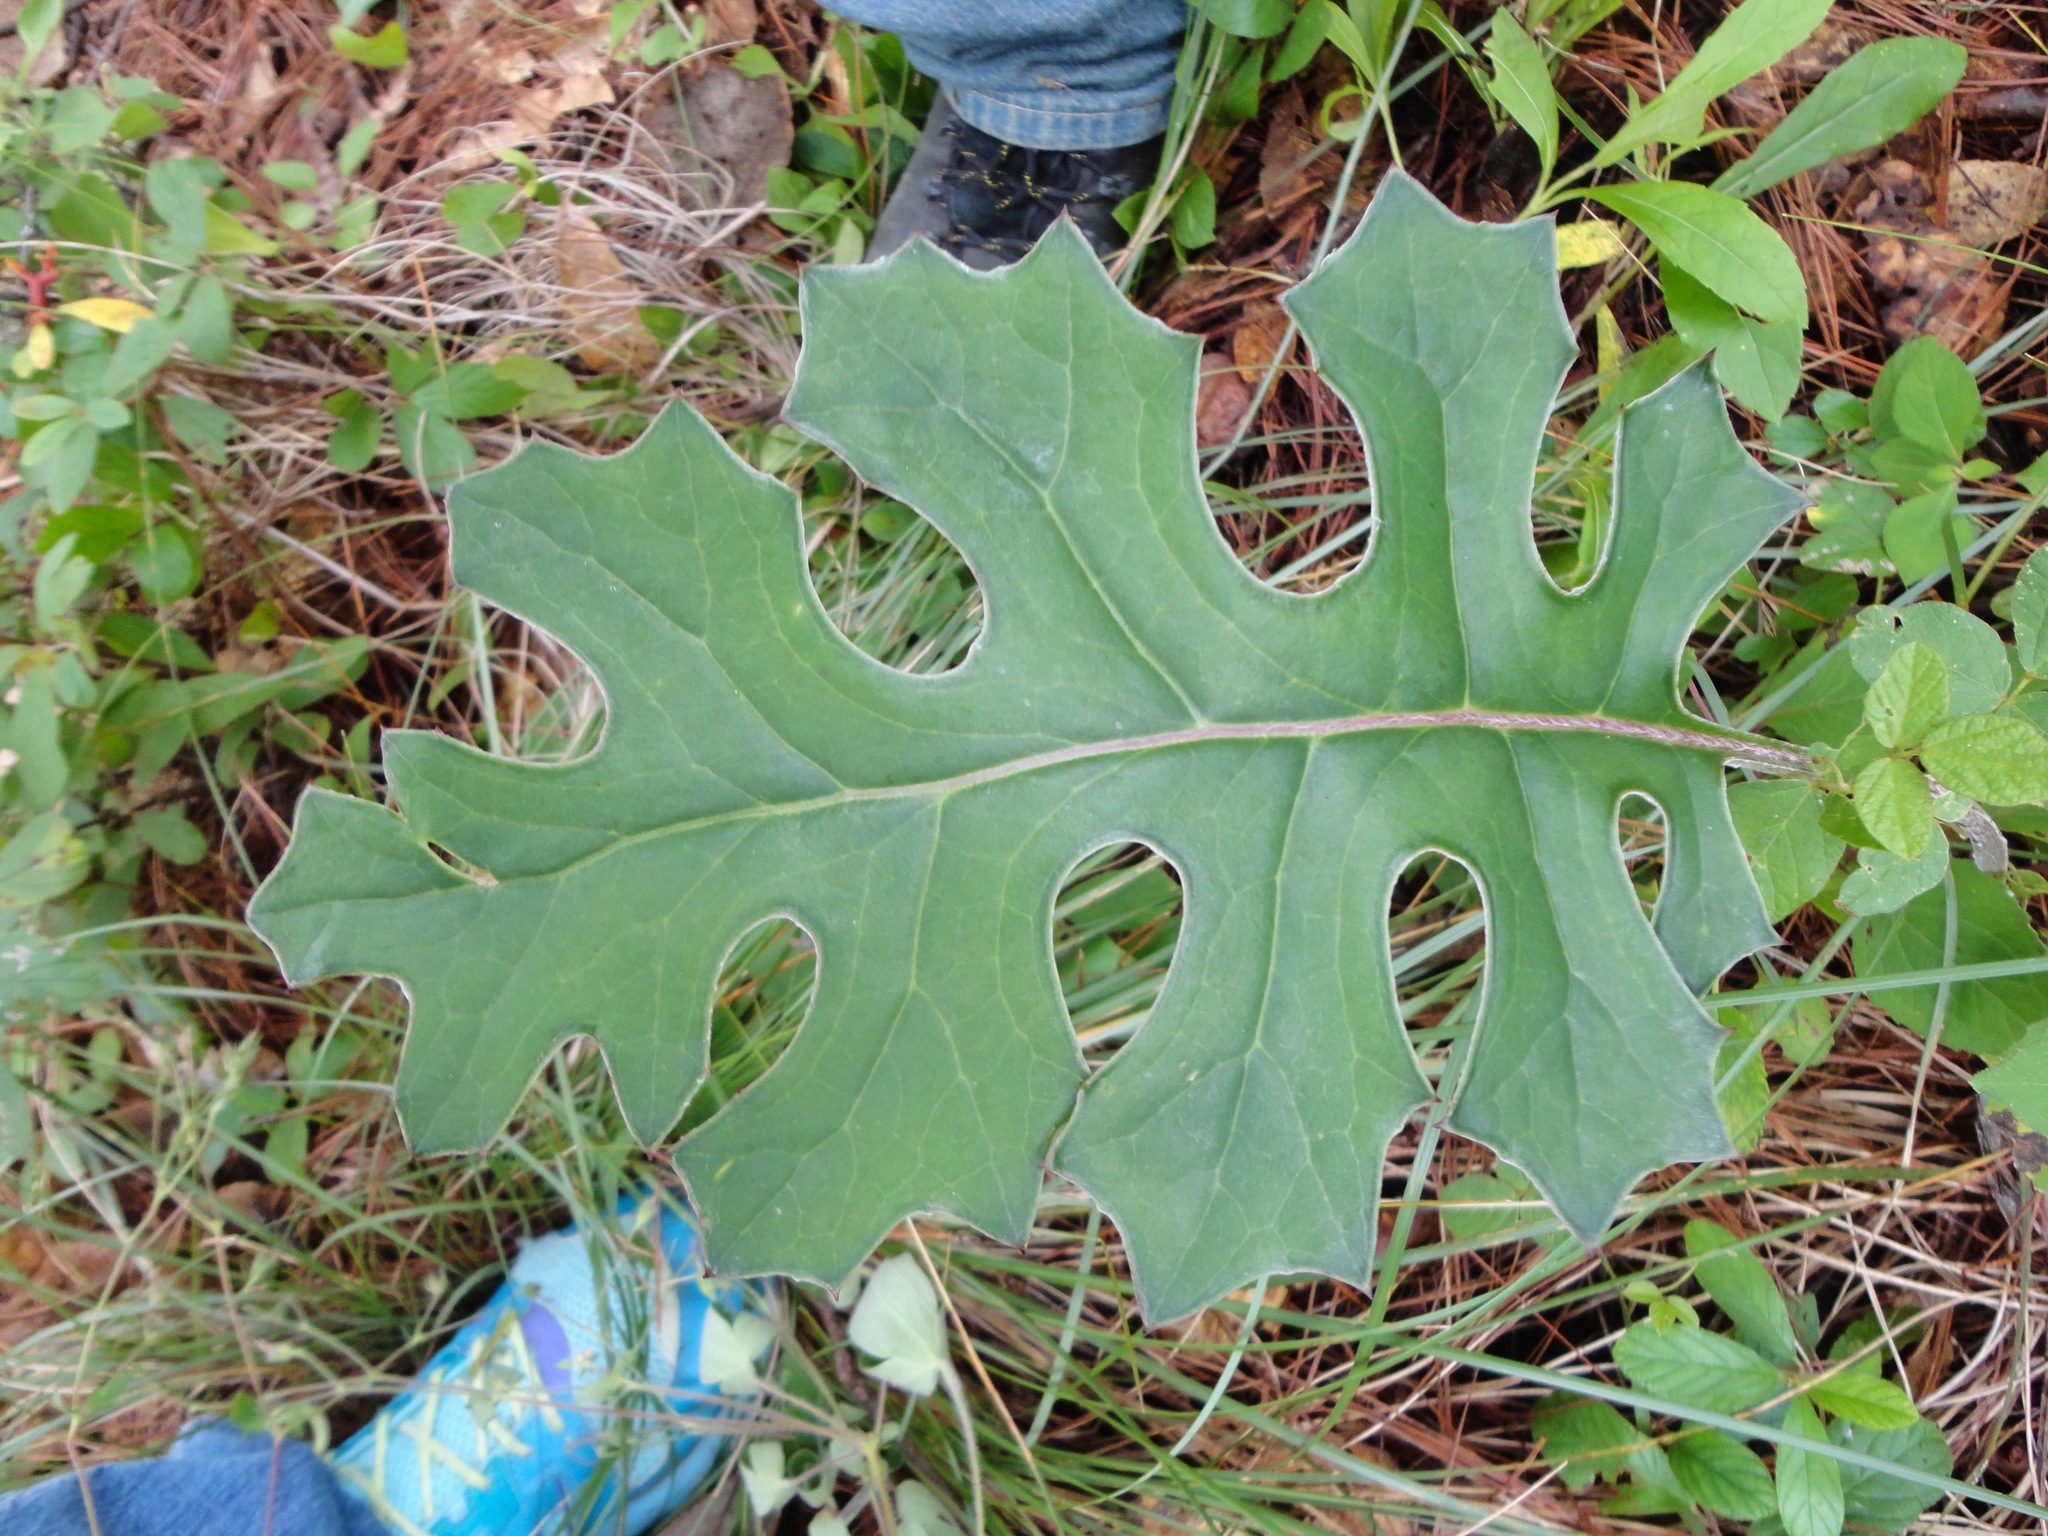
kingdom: Plantae
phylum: Tracheophyta
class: Magnoliopsida
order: Asterales
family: Asteraceae
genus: Psacalium
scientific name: Psacalium paucicapitatum
